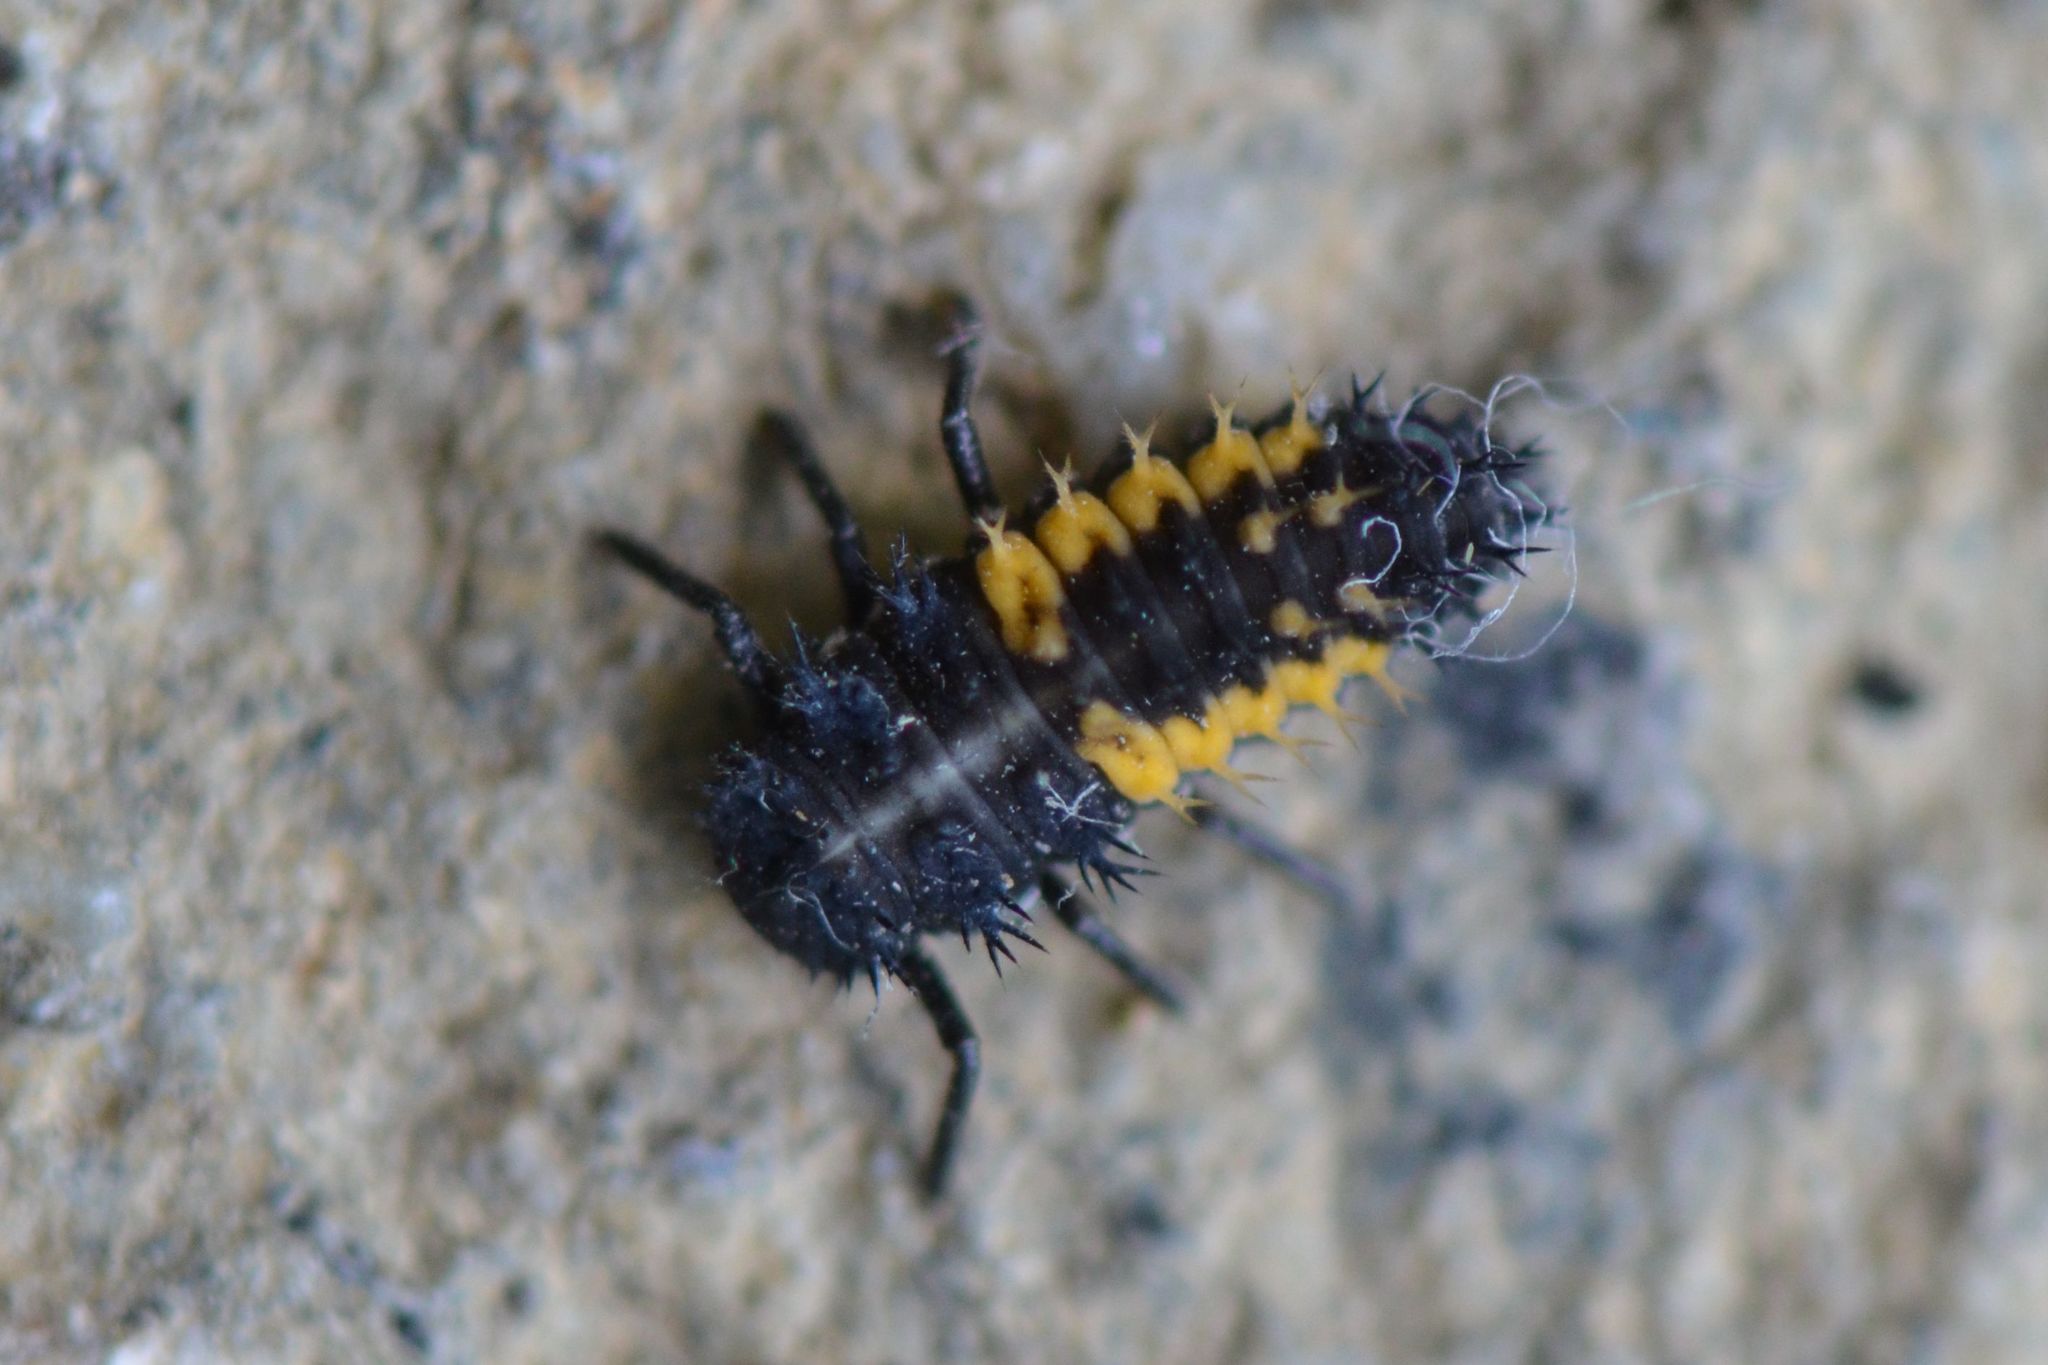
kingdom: Animalia
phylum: Arthropoda
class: Insecta
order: Coleoptera
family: Coccinellidae
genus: Harmonia
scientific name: Harmonia axyridis
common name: Harlequin ladybird
